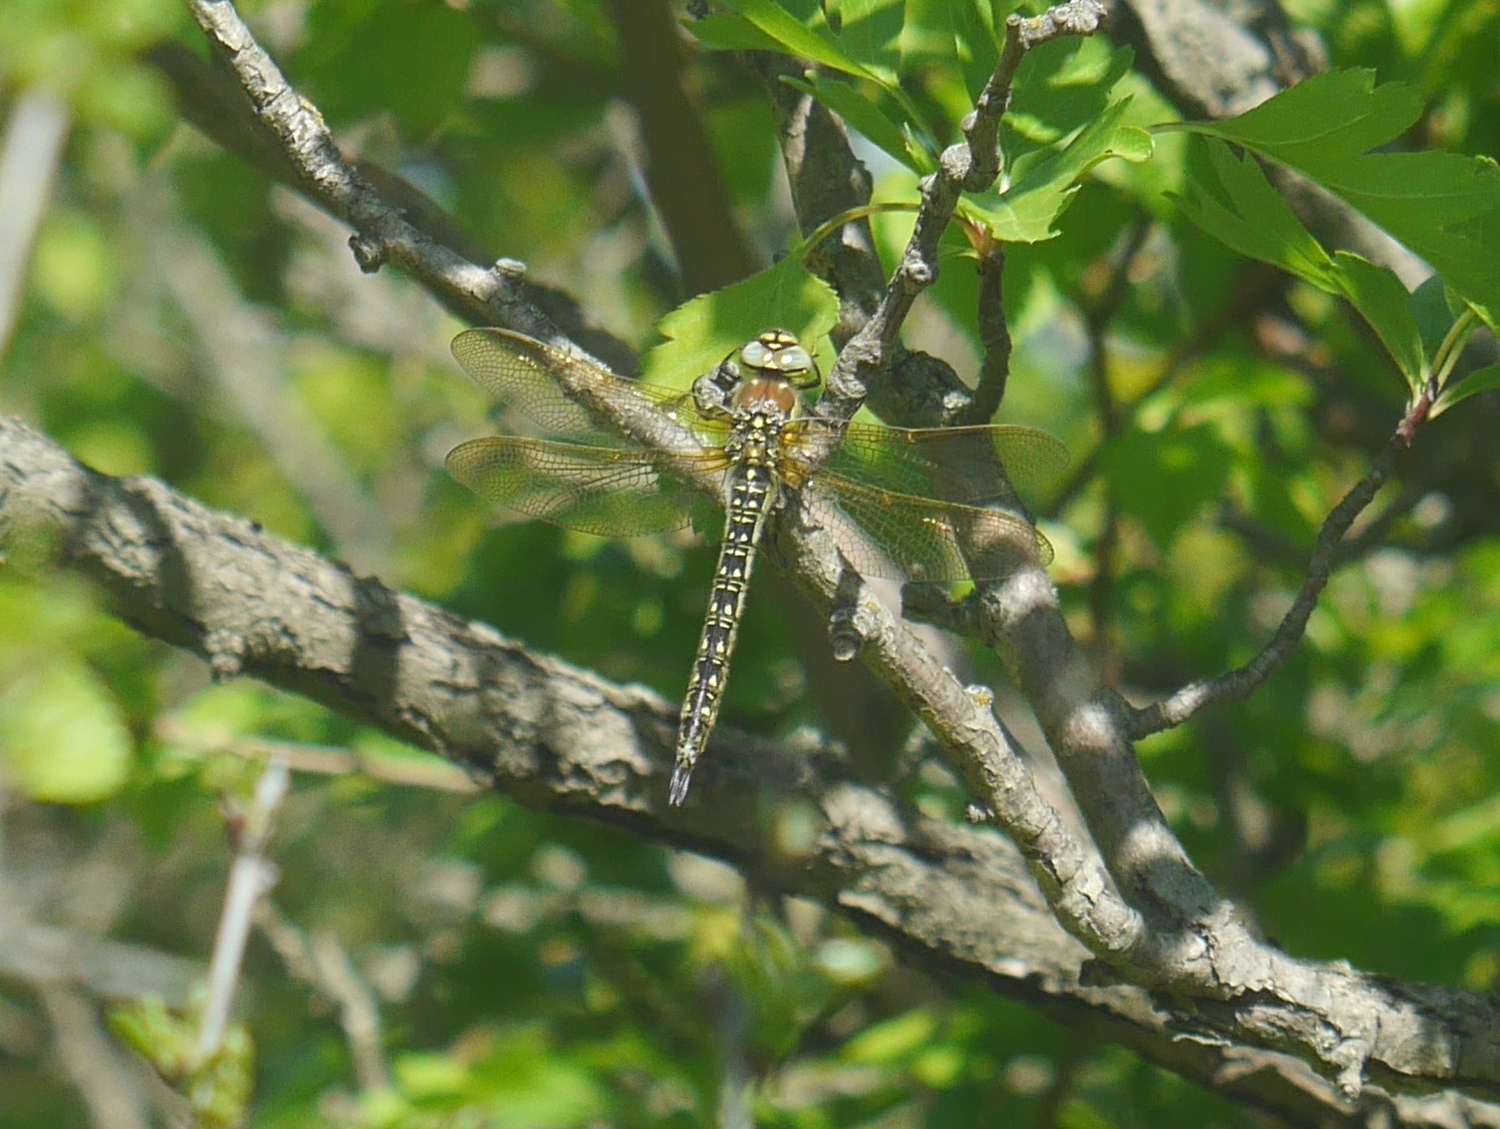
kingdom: Animalia
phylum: Arthropoda
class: Insecta
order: Odonata
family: Aeshnidae
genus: Brachytron
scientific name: Brachytron pratense
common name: Hairy hawker
